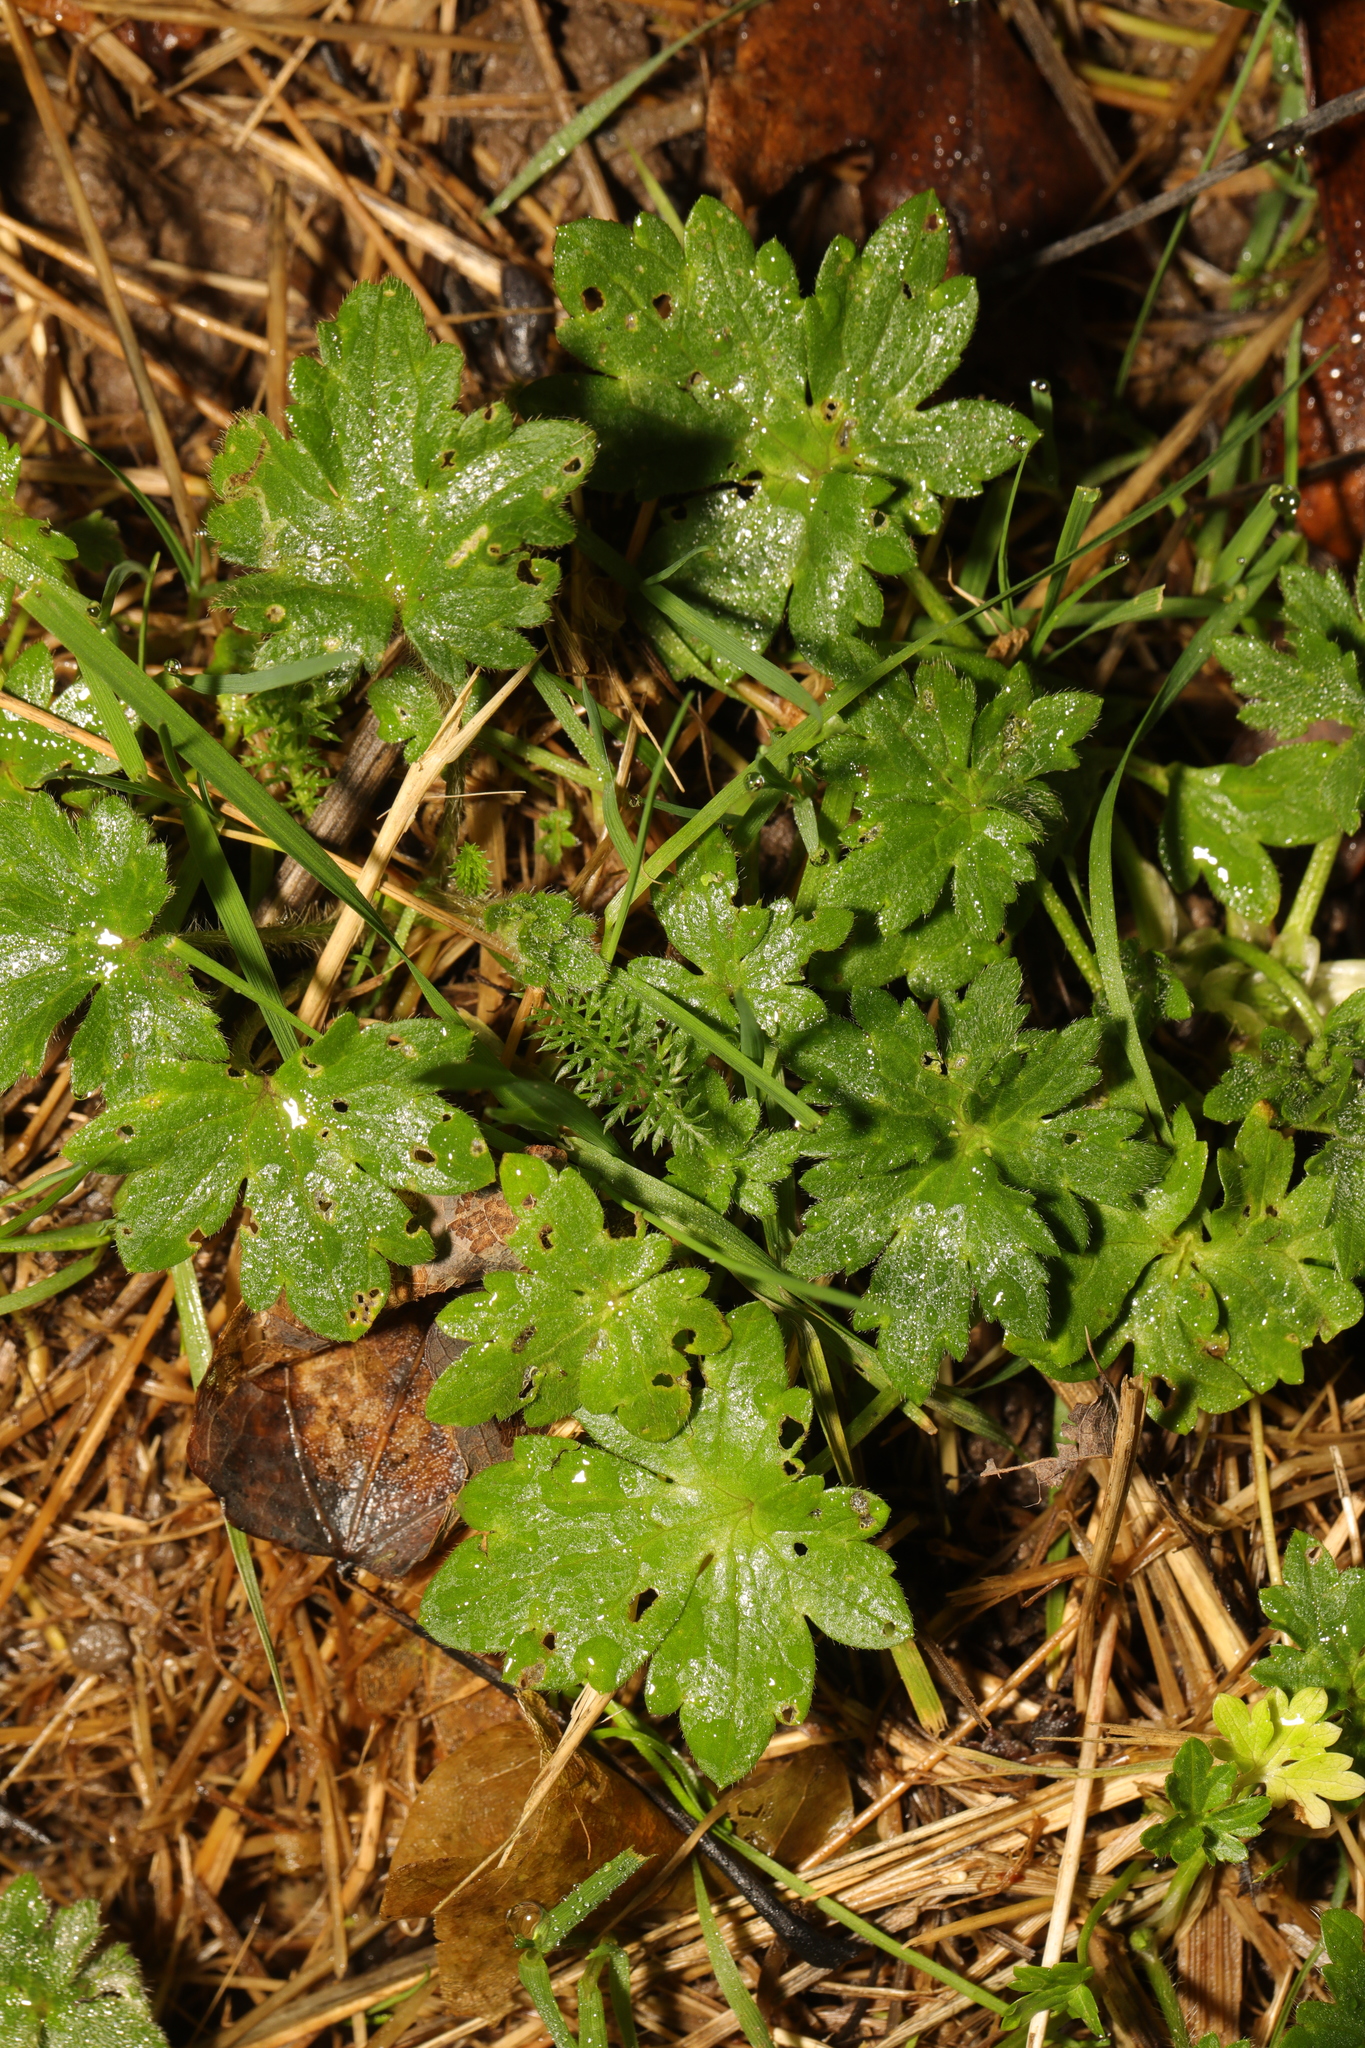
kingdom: Plantae
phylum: Tracheophyta
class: Magnoliopsida
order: Ranunculales
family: Ranunculaceae
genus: Ranunculus
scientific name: Ranunculus repens
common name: Creeping buttercup
